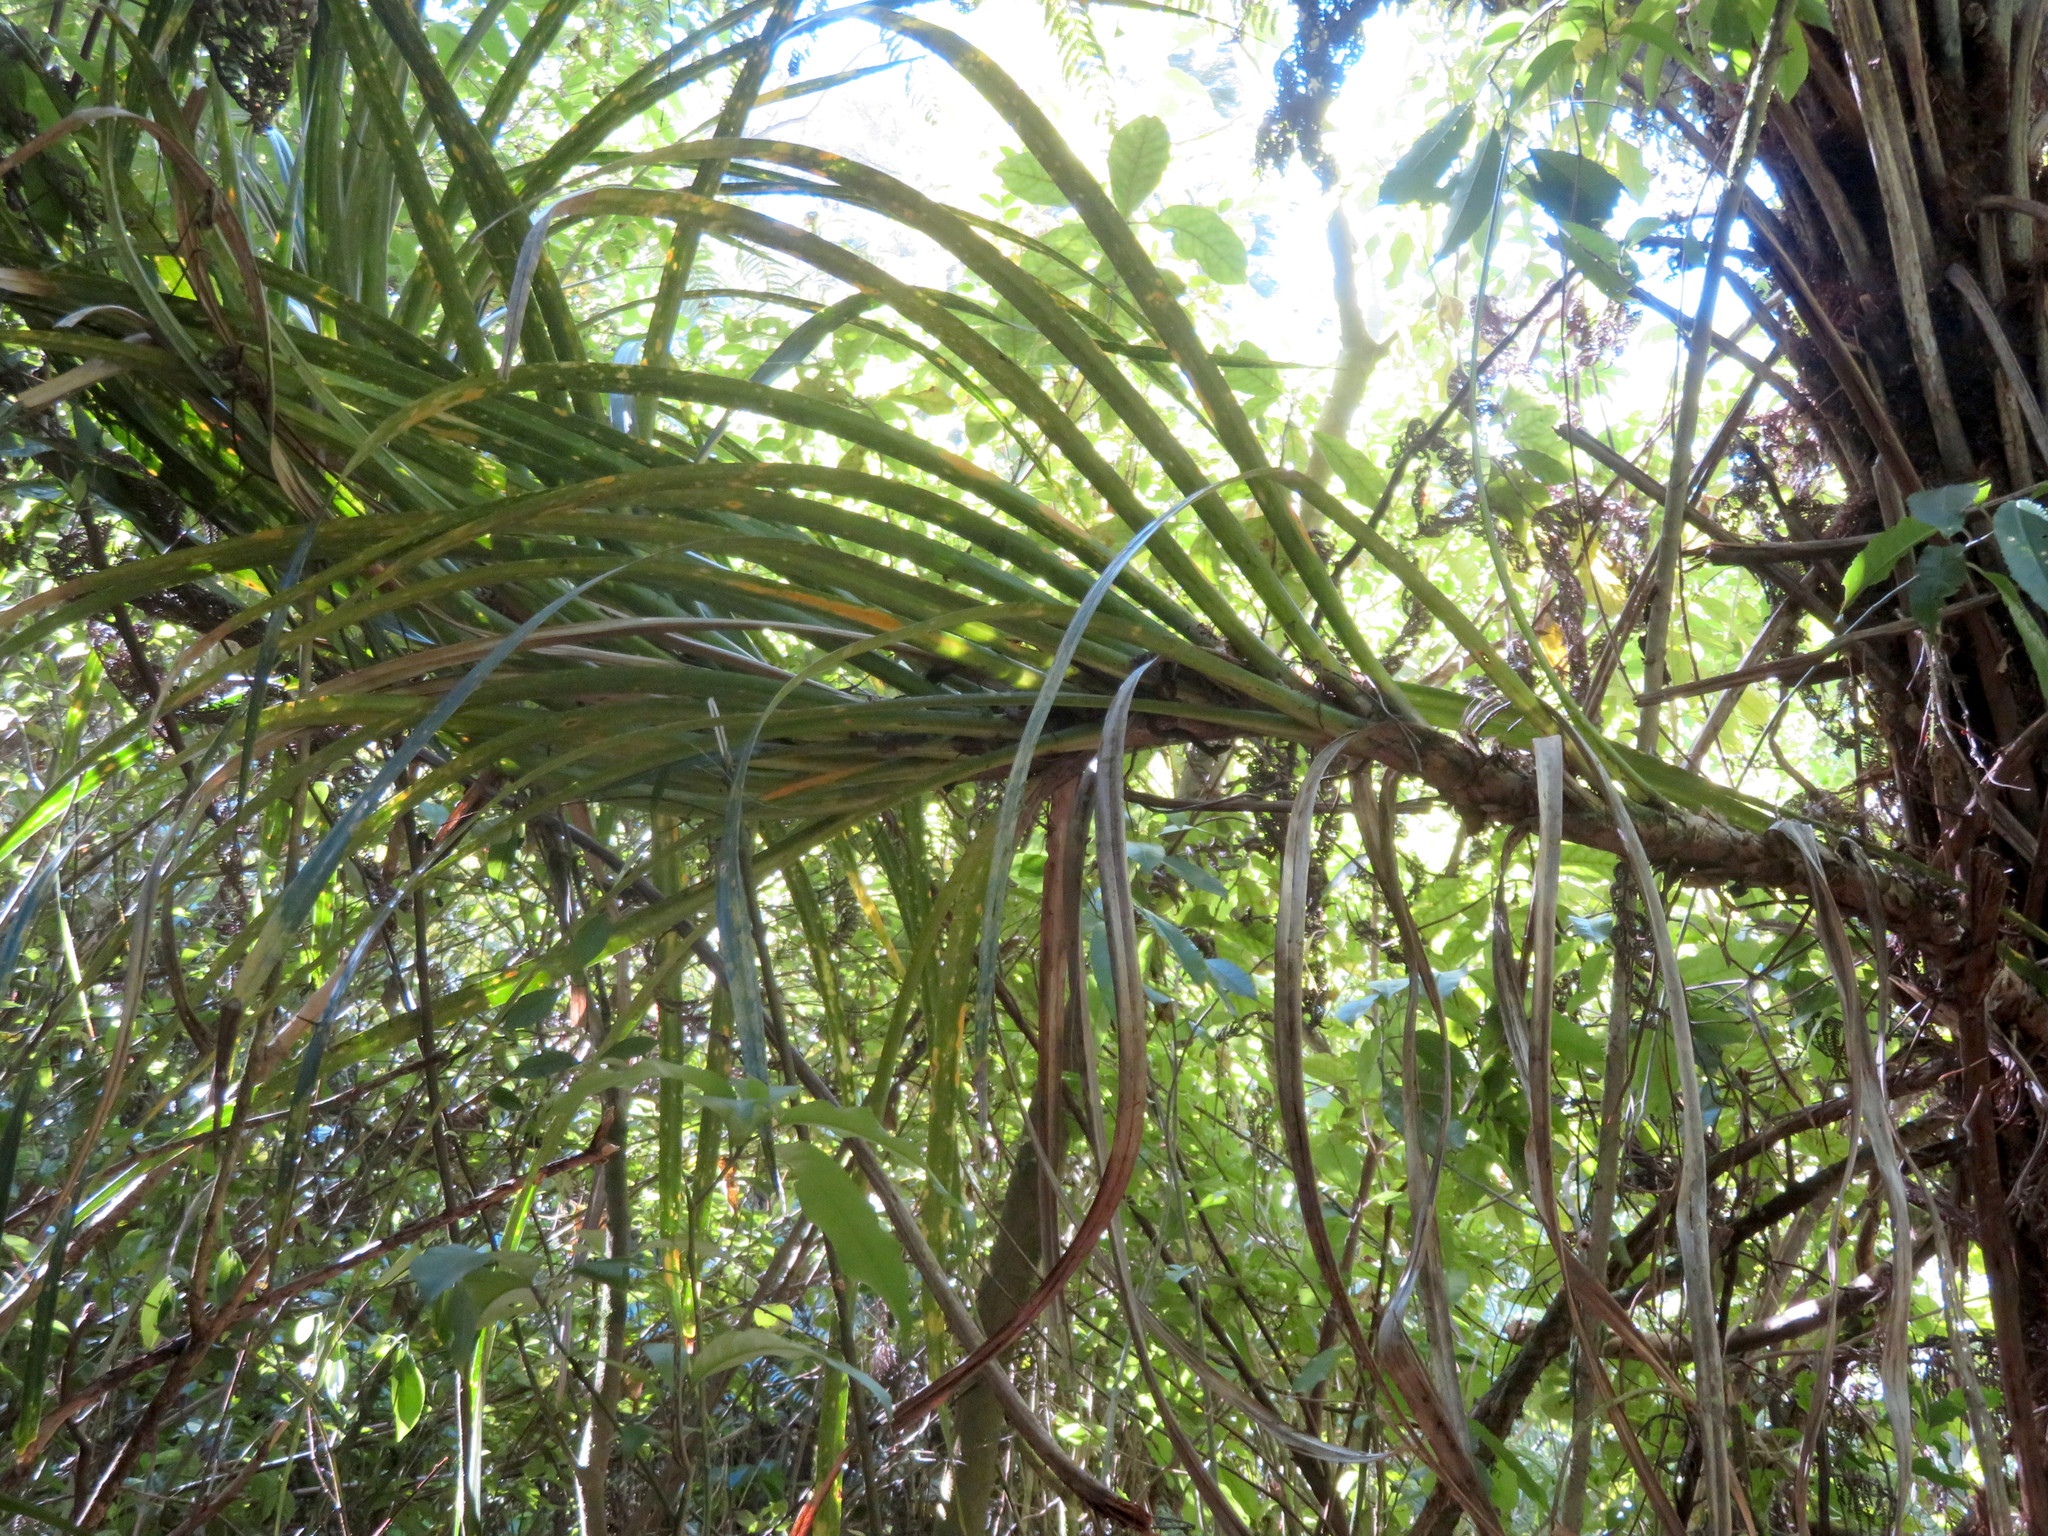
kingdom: Plantae
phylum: Tracheophyta
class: Liliopsida
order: Pandanales
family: Pandanaceae
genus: Freycinetia
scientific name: Freycinetia banksii
